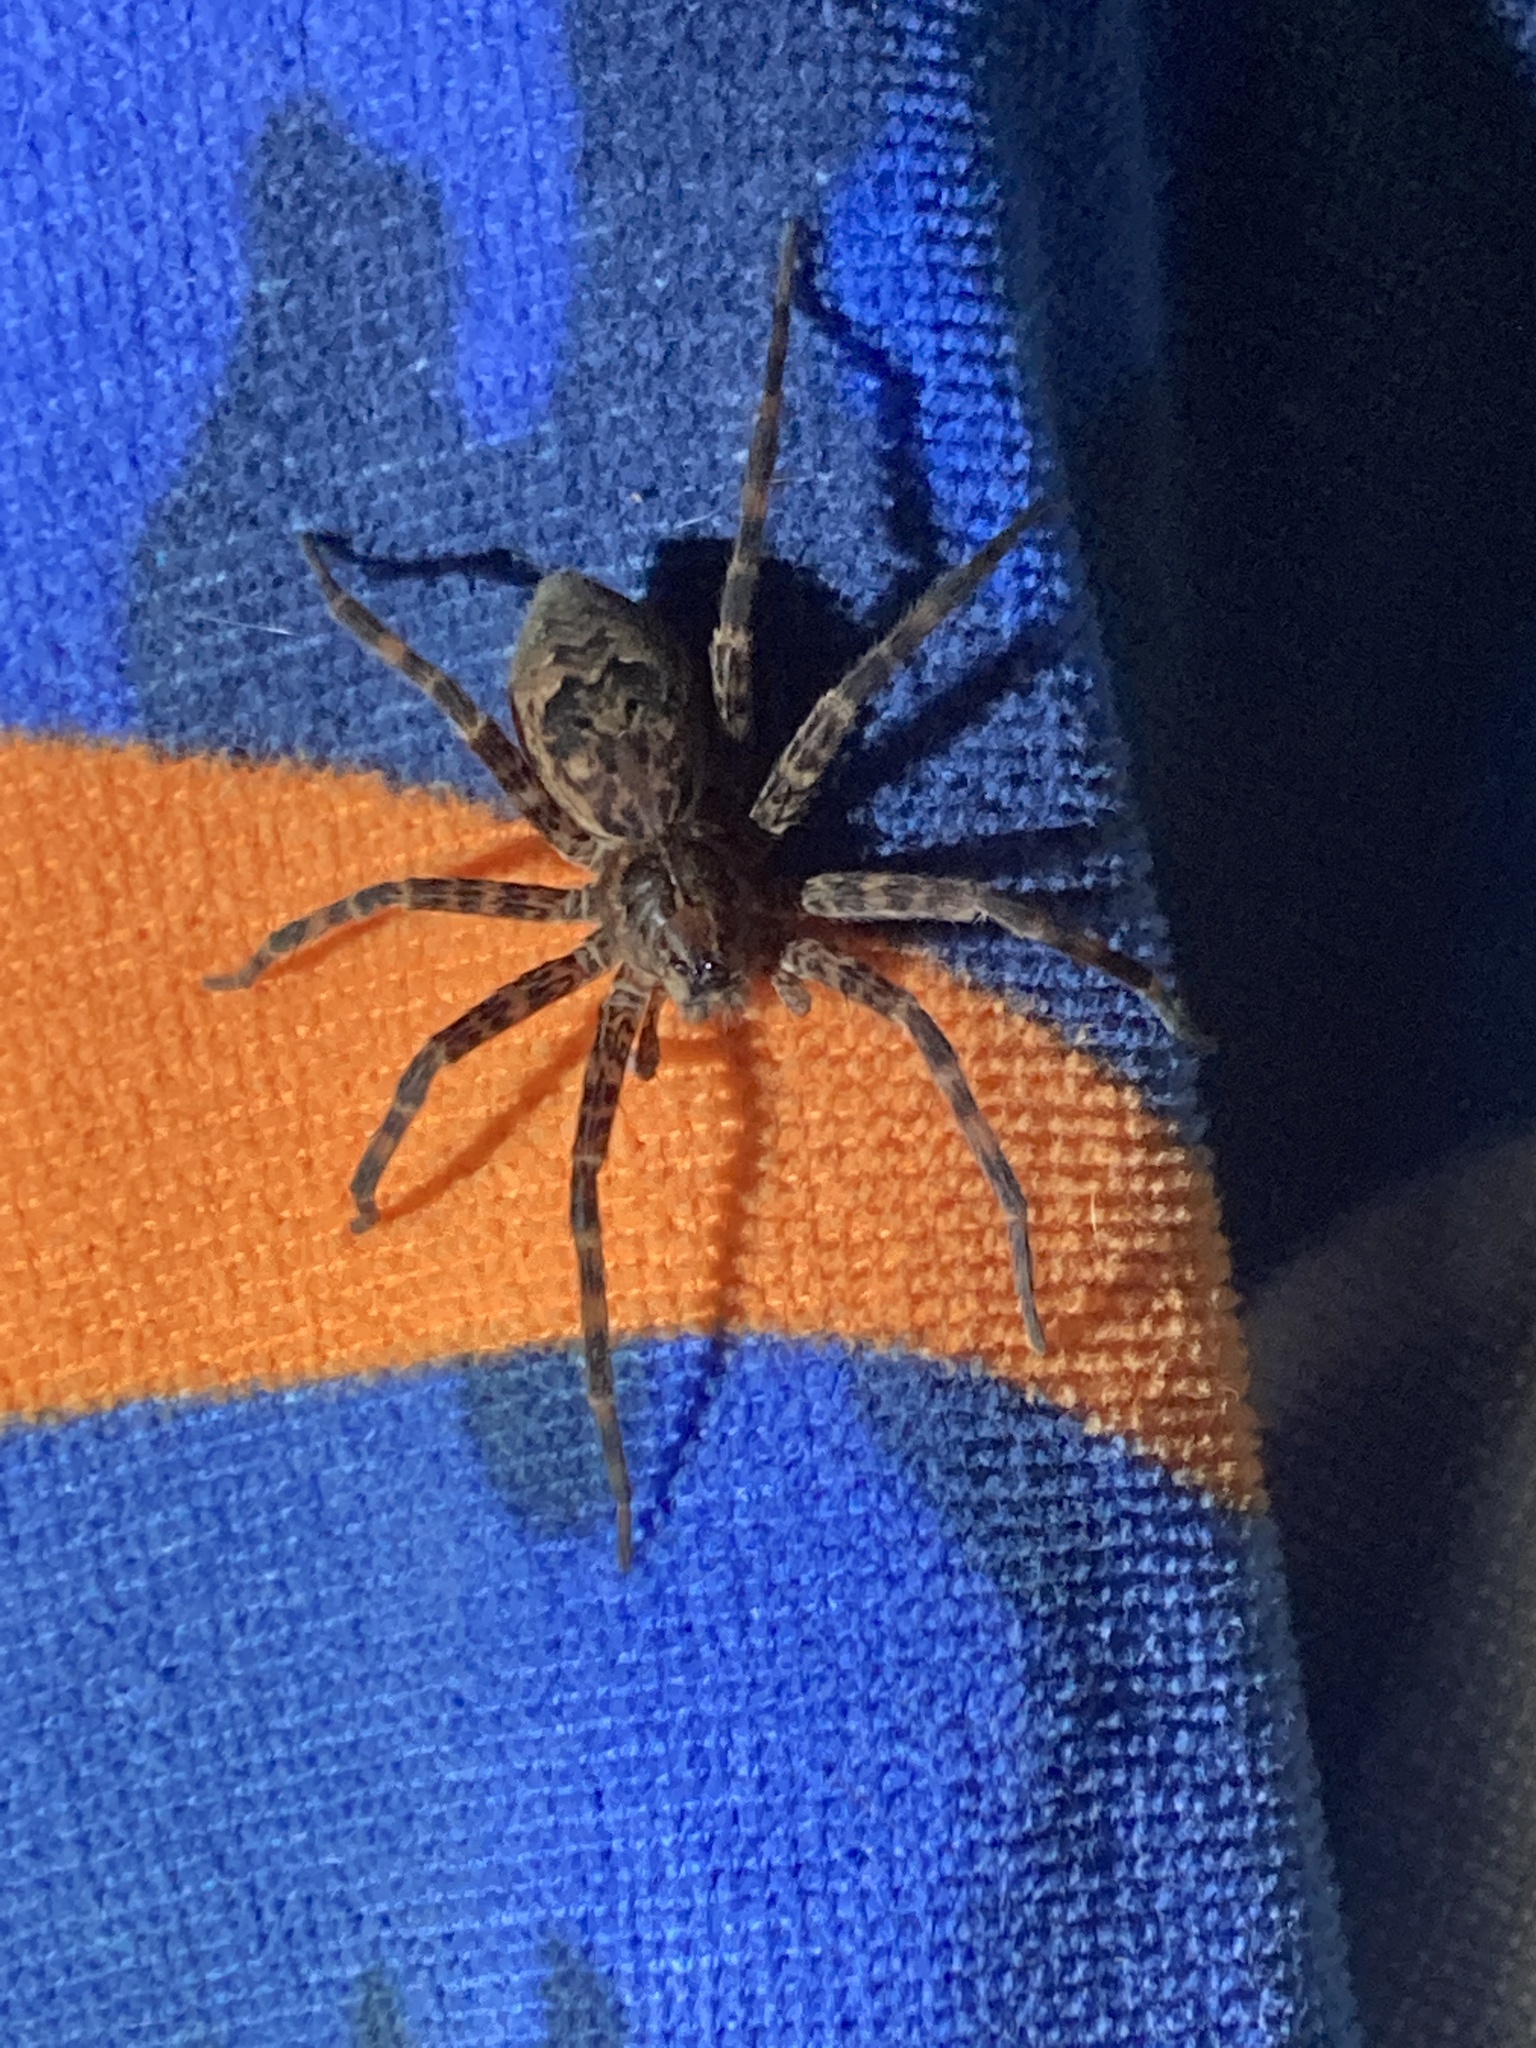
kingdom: Animalia
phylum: Arthropoda
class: Arachnida
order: Araneae
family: Pisauridae
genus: Dolomedes
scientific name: Dolomedes tenebrosus
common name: Dark fishing spider
